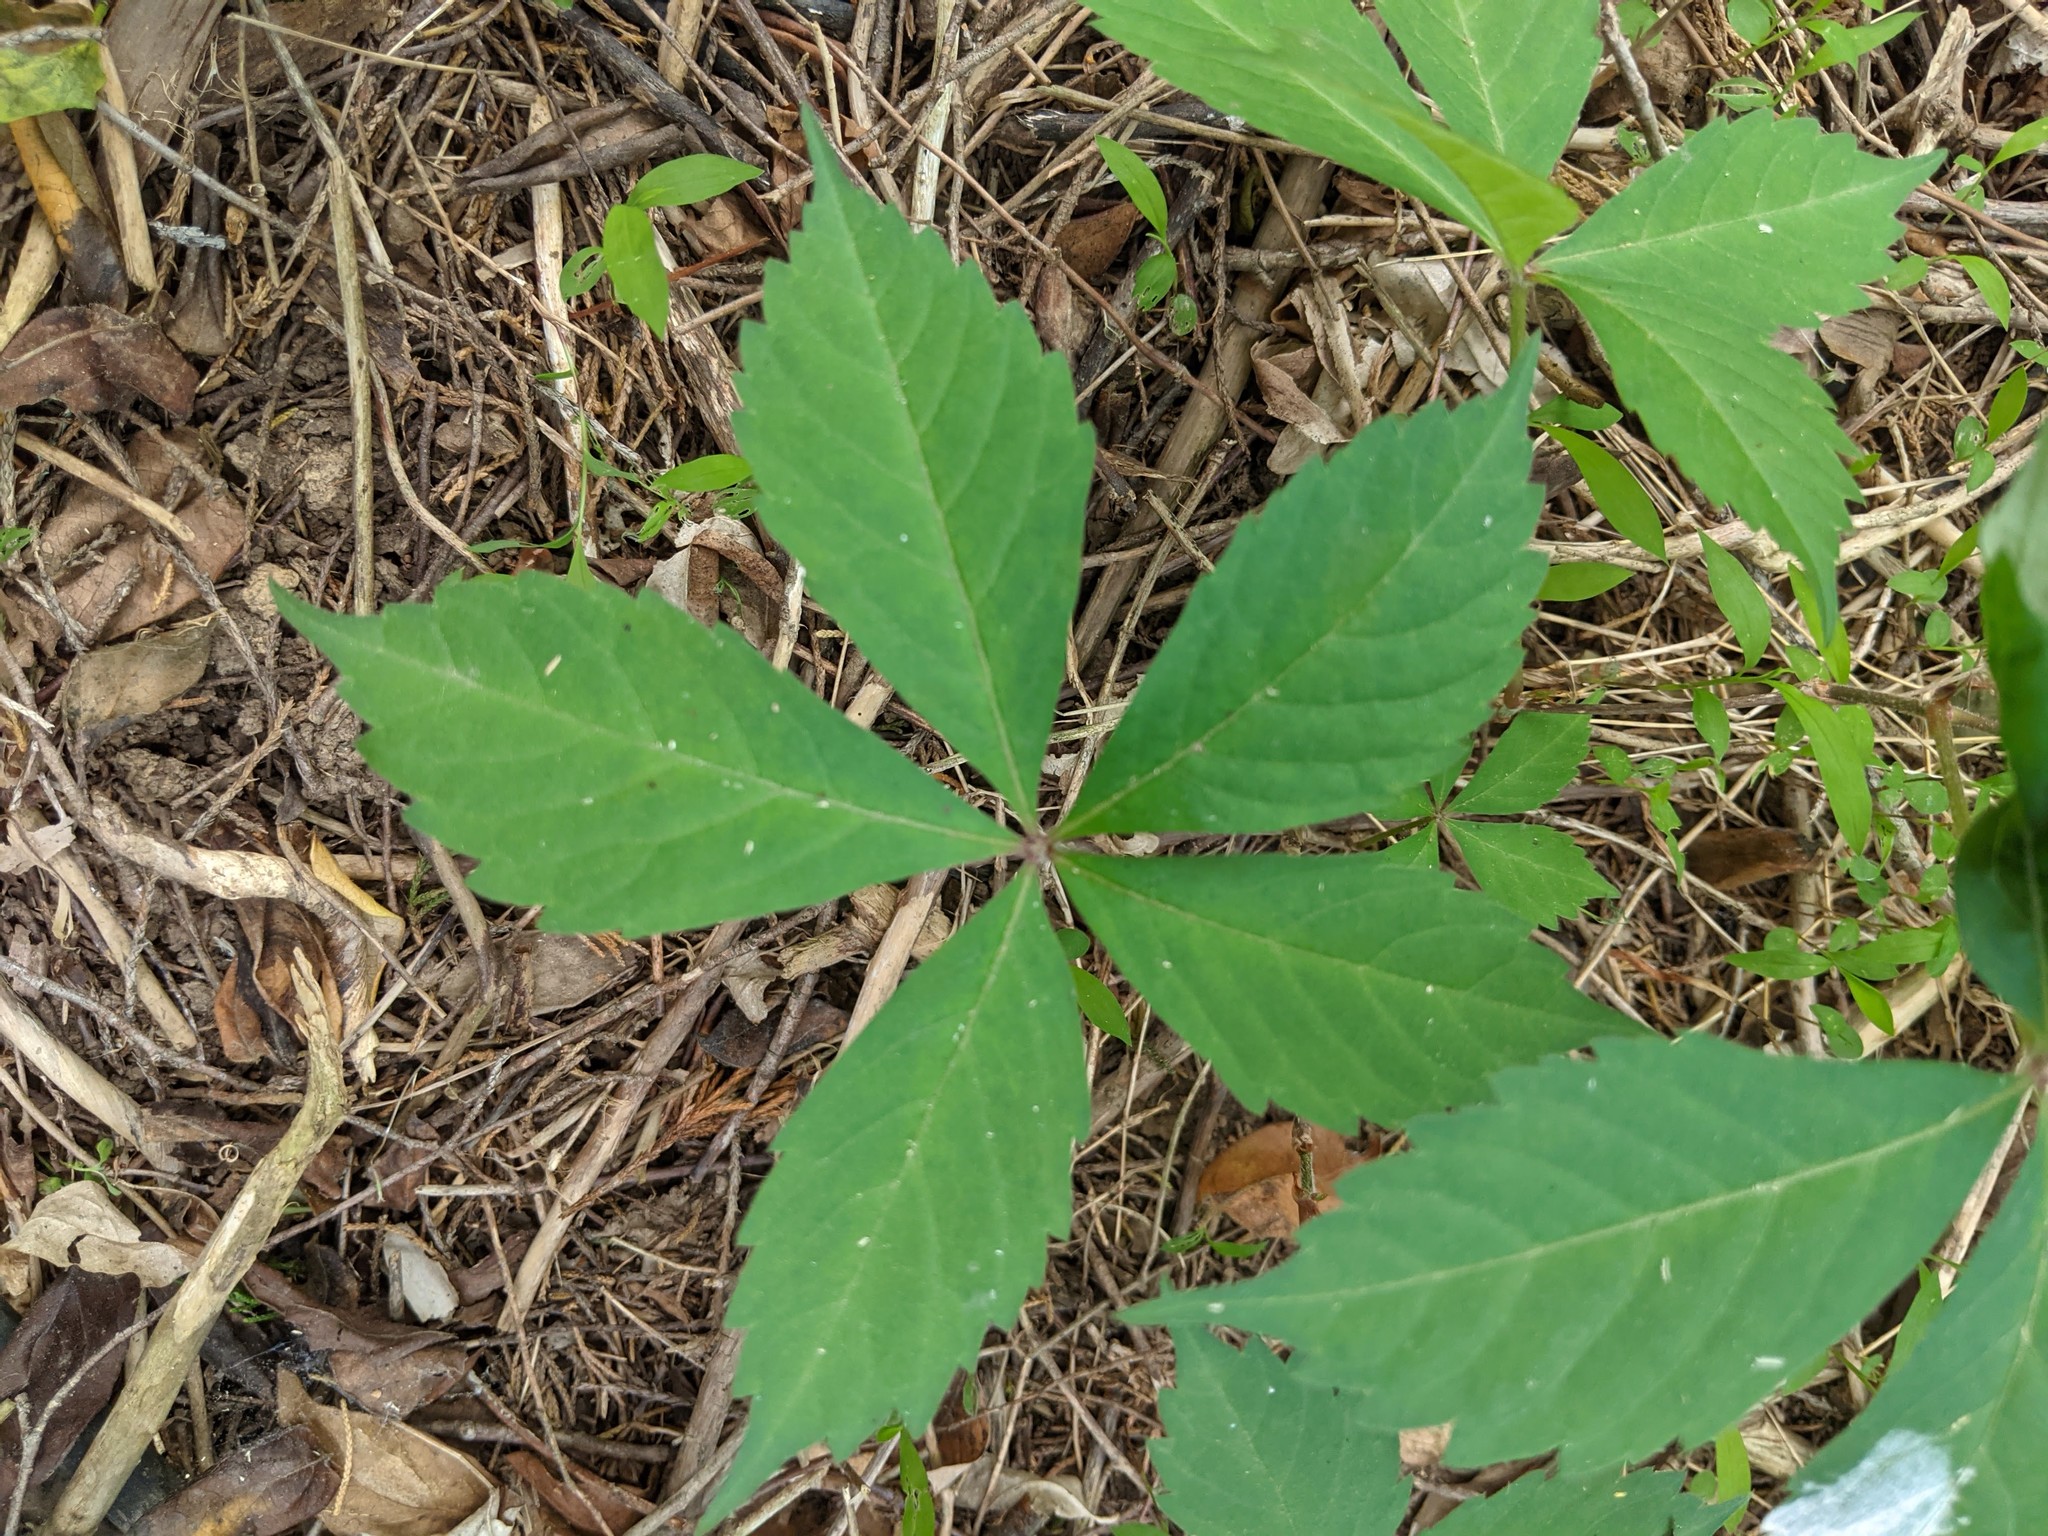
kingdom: Plantae
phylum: Tracheophyta
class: Magnoliopsida
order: Vitales
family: Vitaceae
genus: Parthenocissus
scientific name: Parthenocissus quinquefolia
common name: Virginia-creeper
